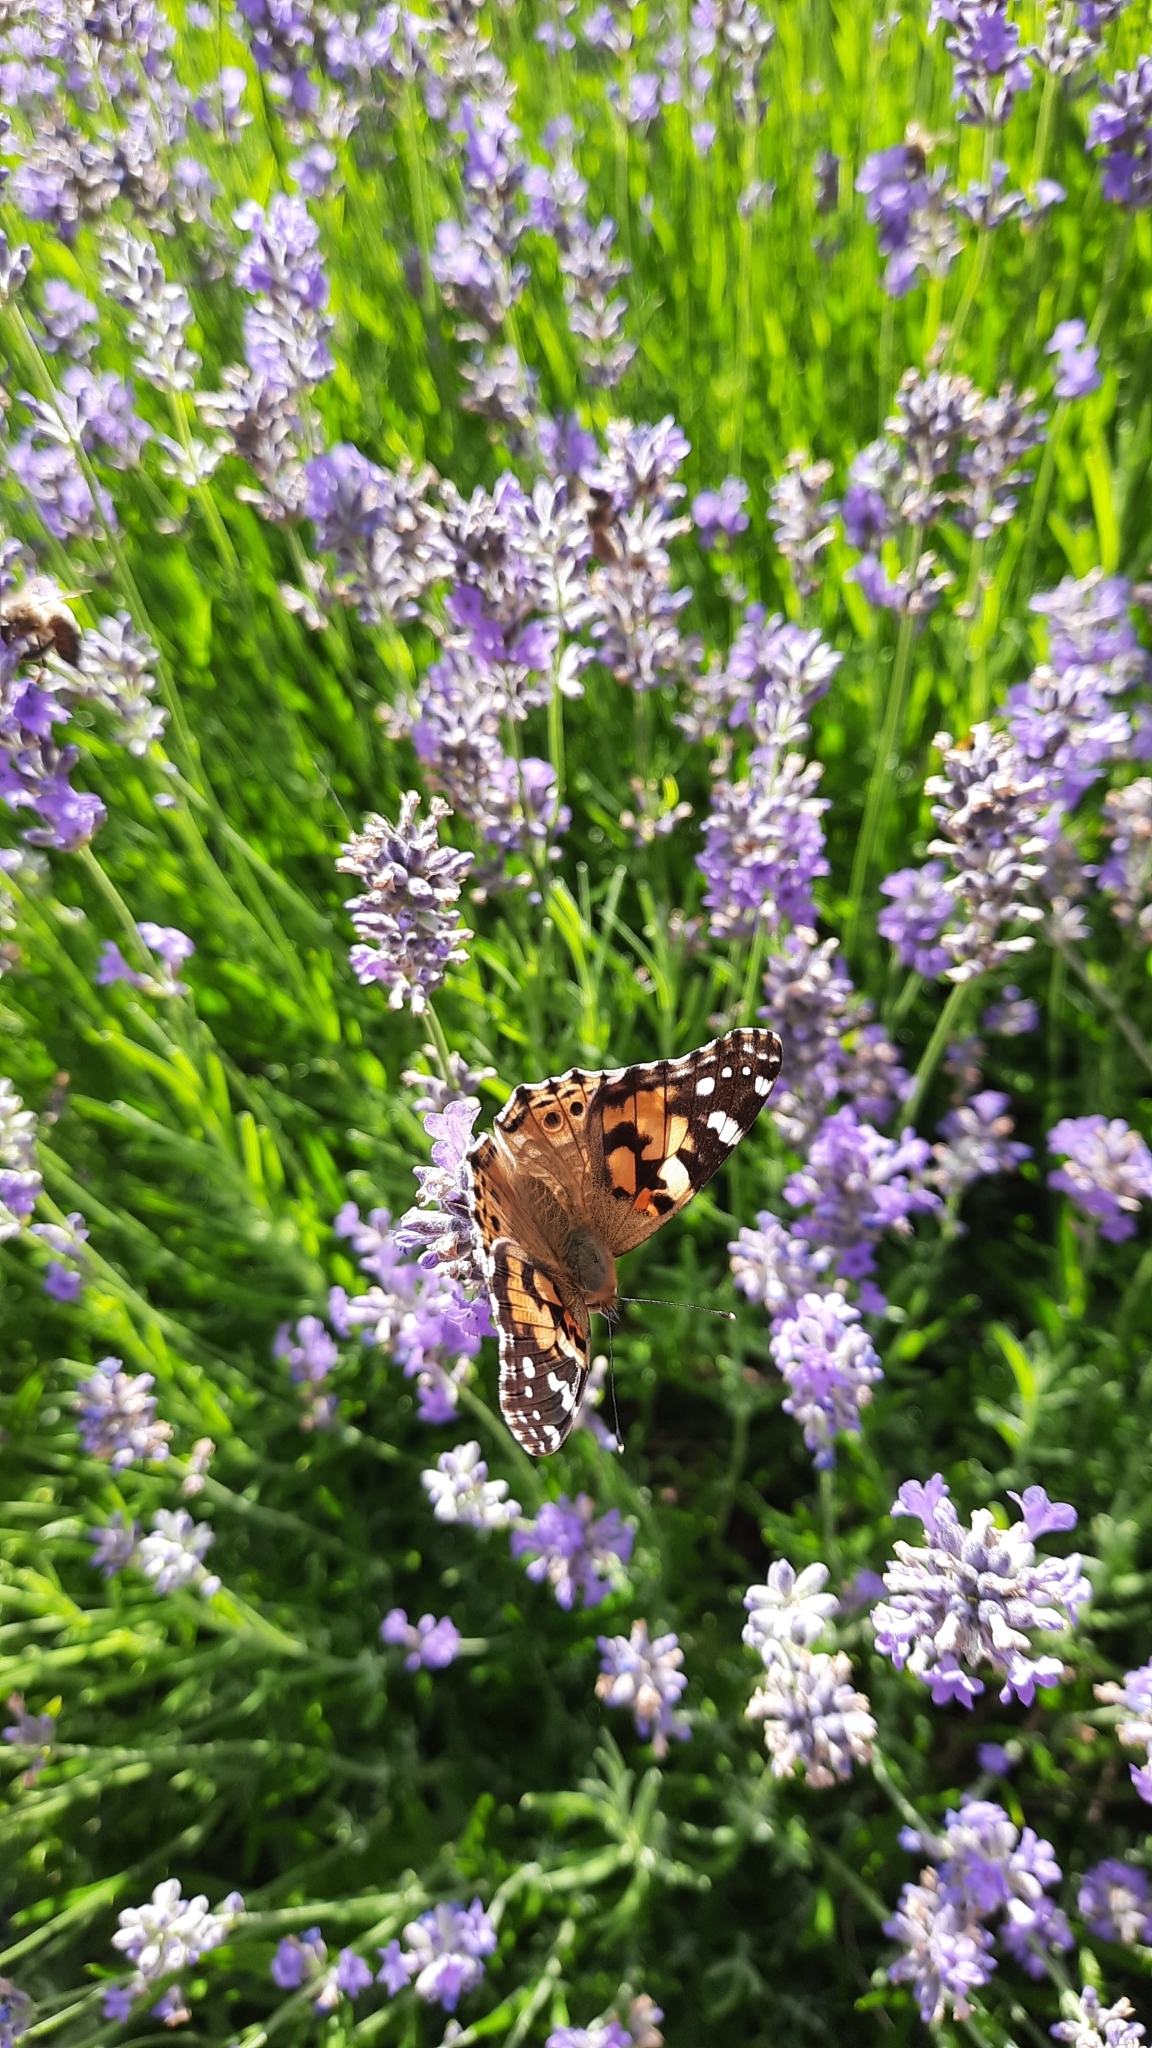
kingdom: Animalia
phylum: Arthropoda
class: Insecta
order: Lepidoptera
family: Nymphalidae
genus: Vanessa
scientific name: Vanessa cardui
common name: Painted lady
